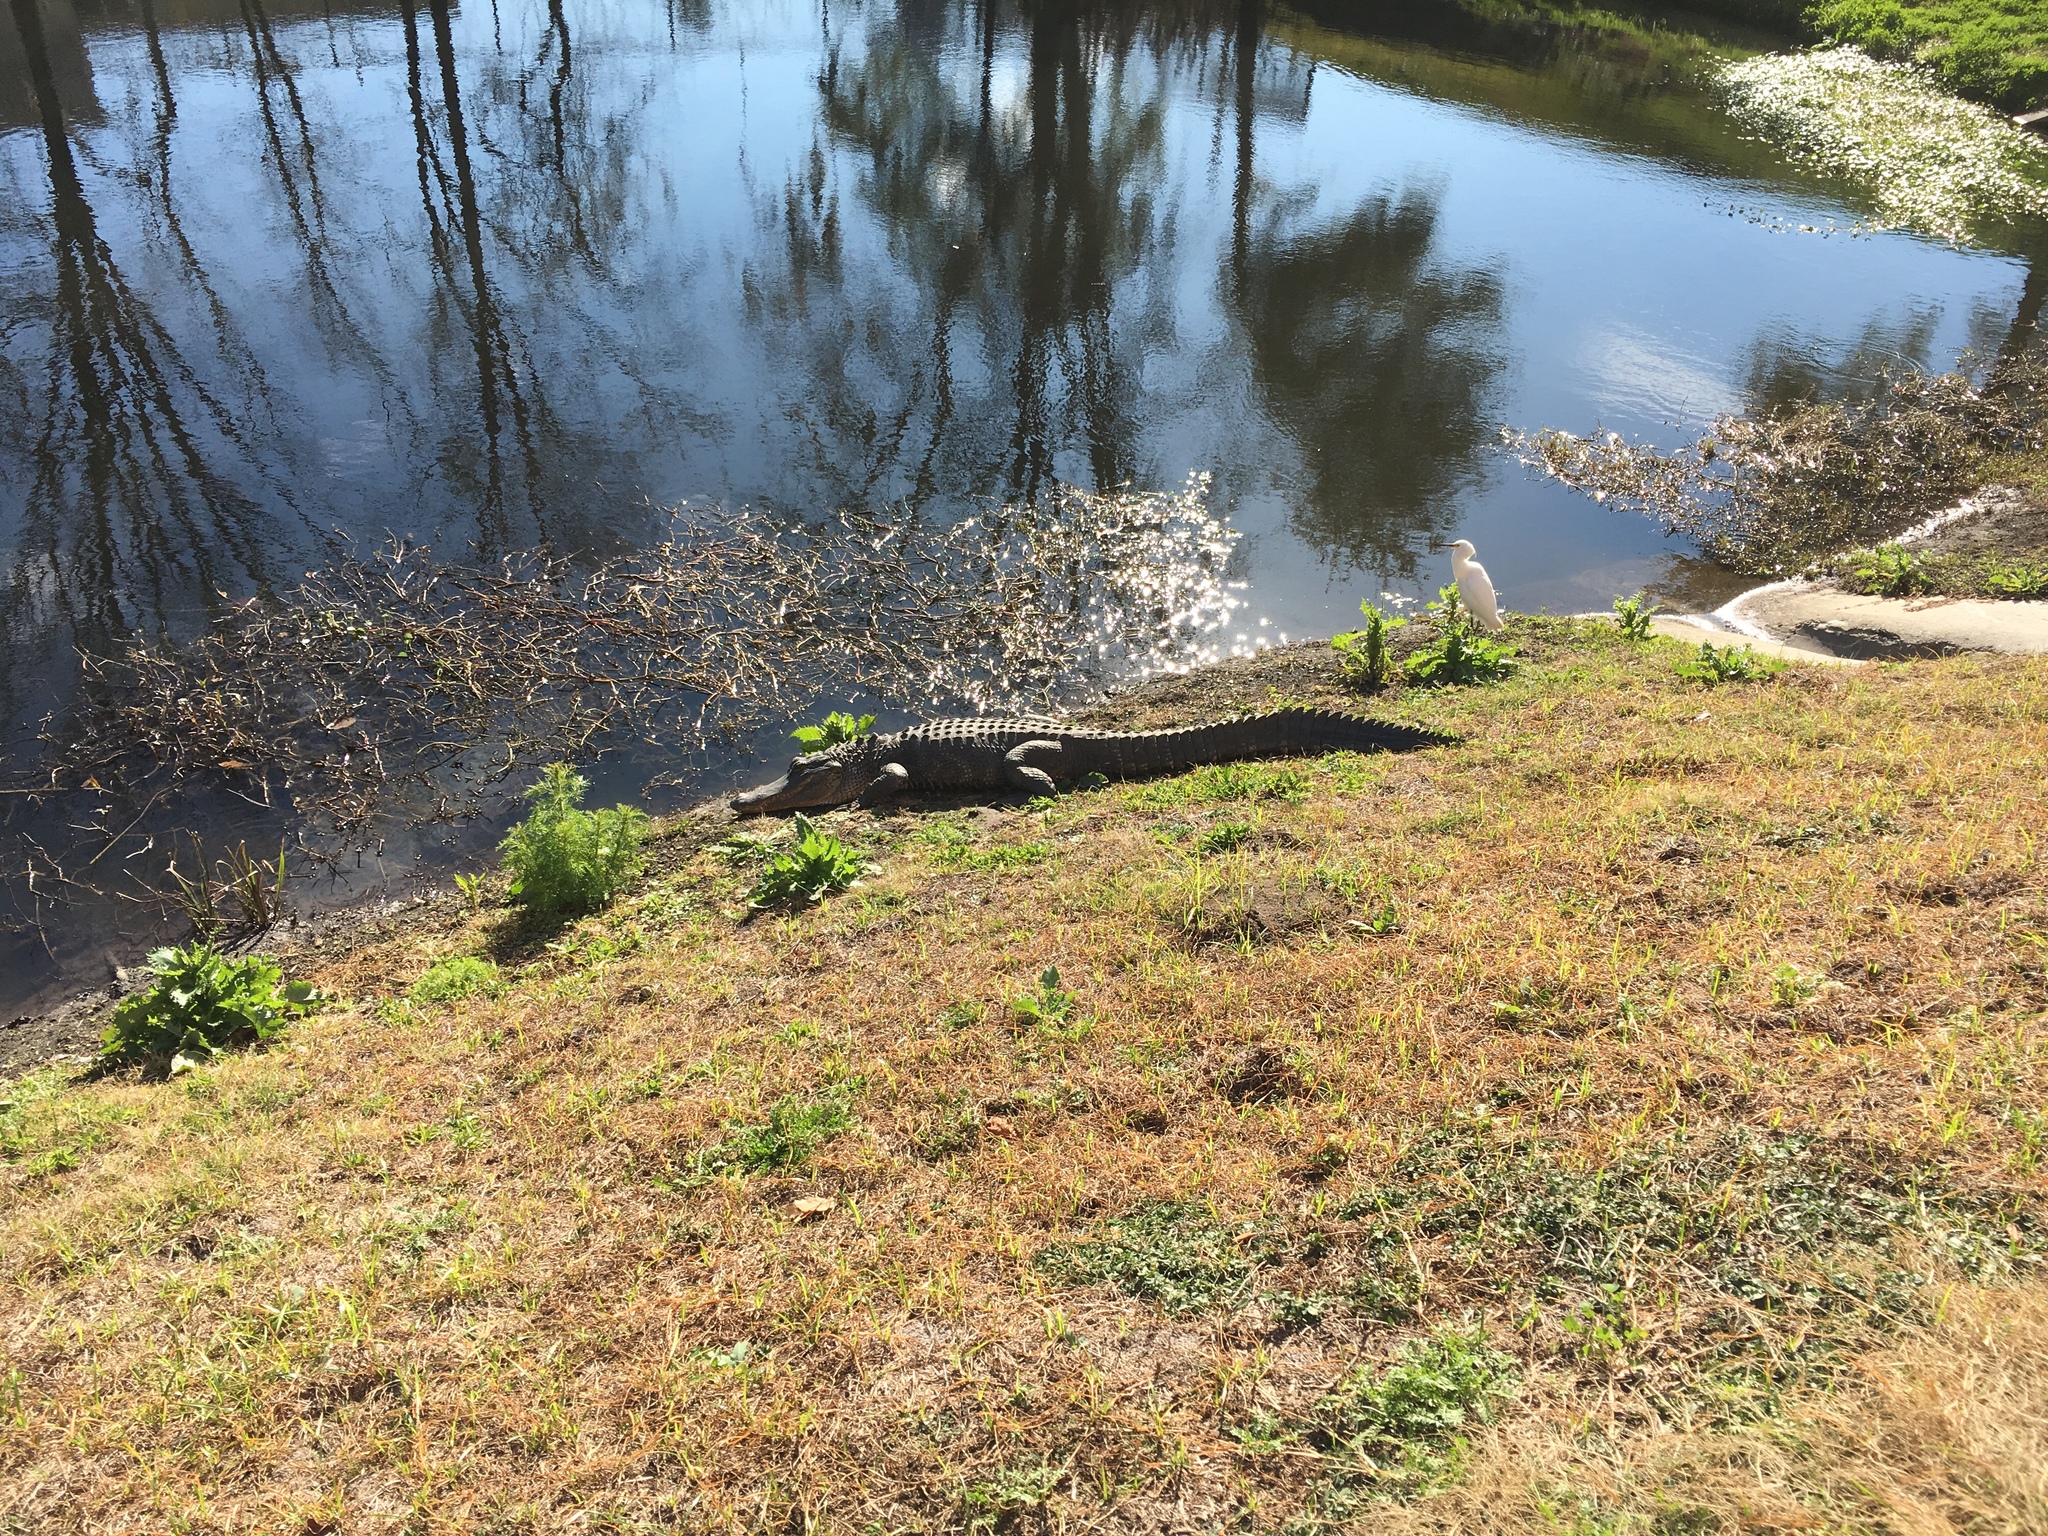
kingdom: Animalia
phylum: Chordata
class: Crocodylia
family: Alligatoridae
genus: Alligator
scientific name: Alligator mississippiensis
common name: American alligator
